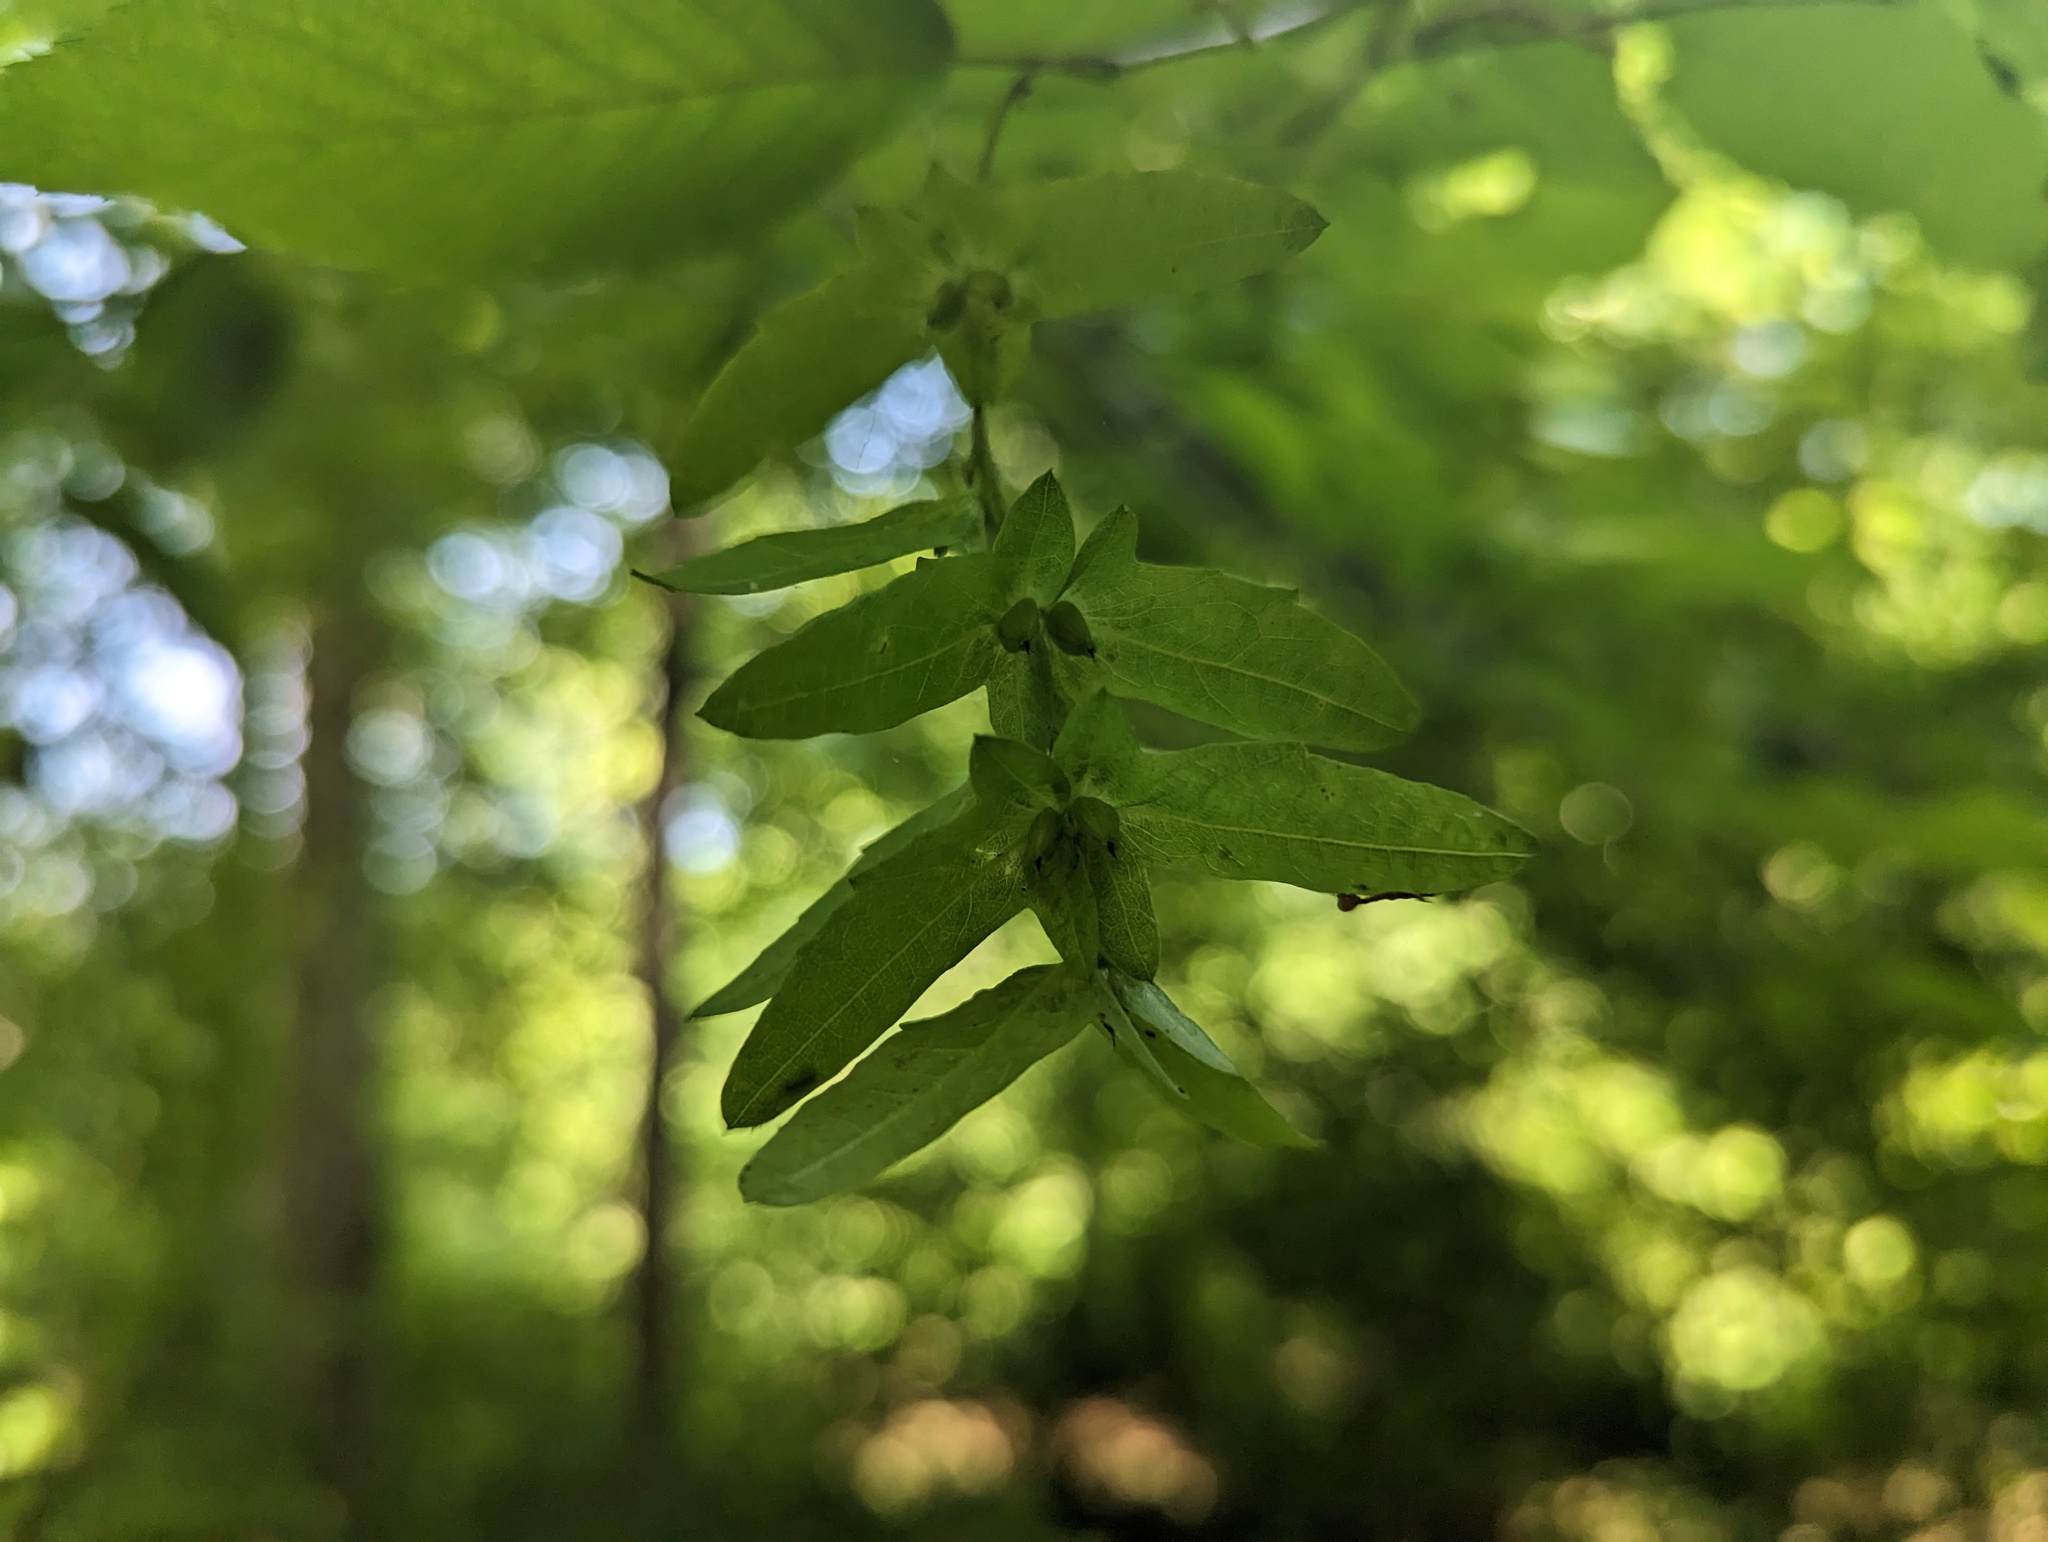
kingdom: Plantae
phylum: Tracheophyta
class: Magnoliopsida
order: Fagales
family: Betulaceae
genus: Carpinus
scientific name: Carpinus caroliniana
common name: American hornbeam
